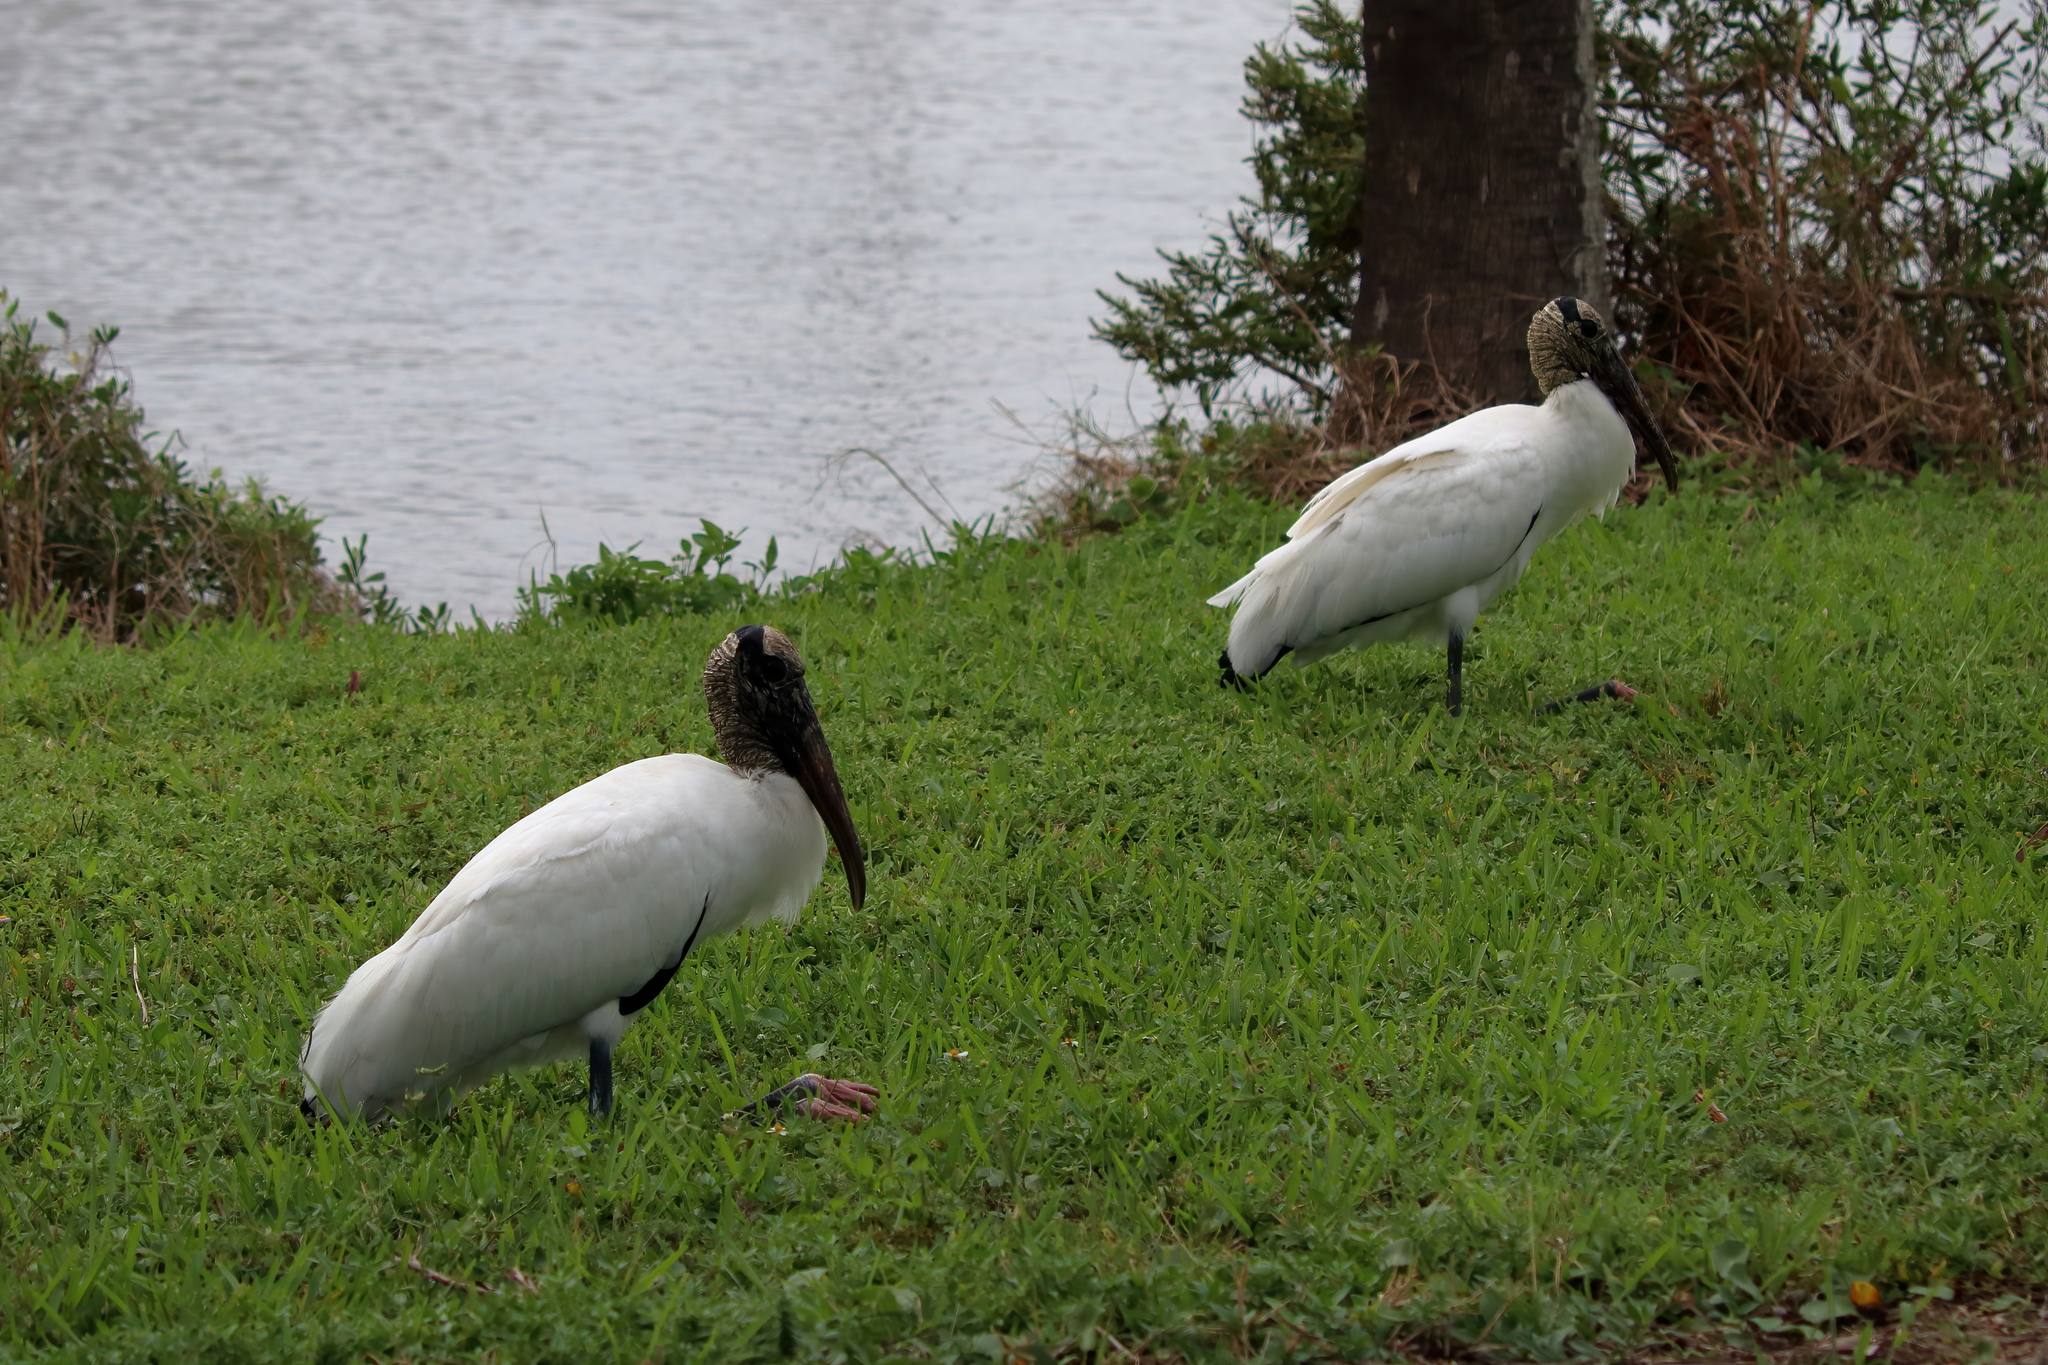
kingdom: Animalia
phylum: Chordata
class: Aves
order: Ciconiiformes
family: Ciconiidae
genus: Mycteria
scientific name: Mycteria americana
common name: Wood stork
